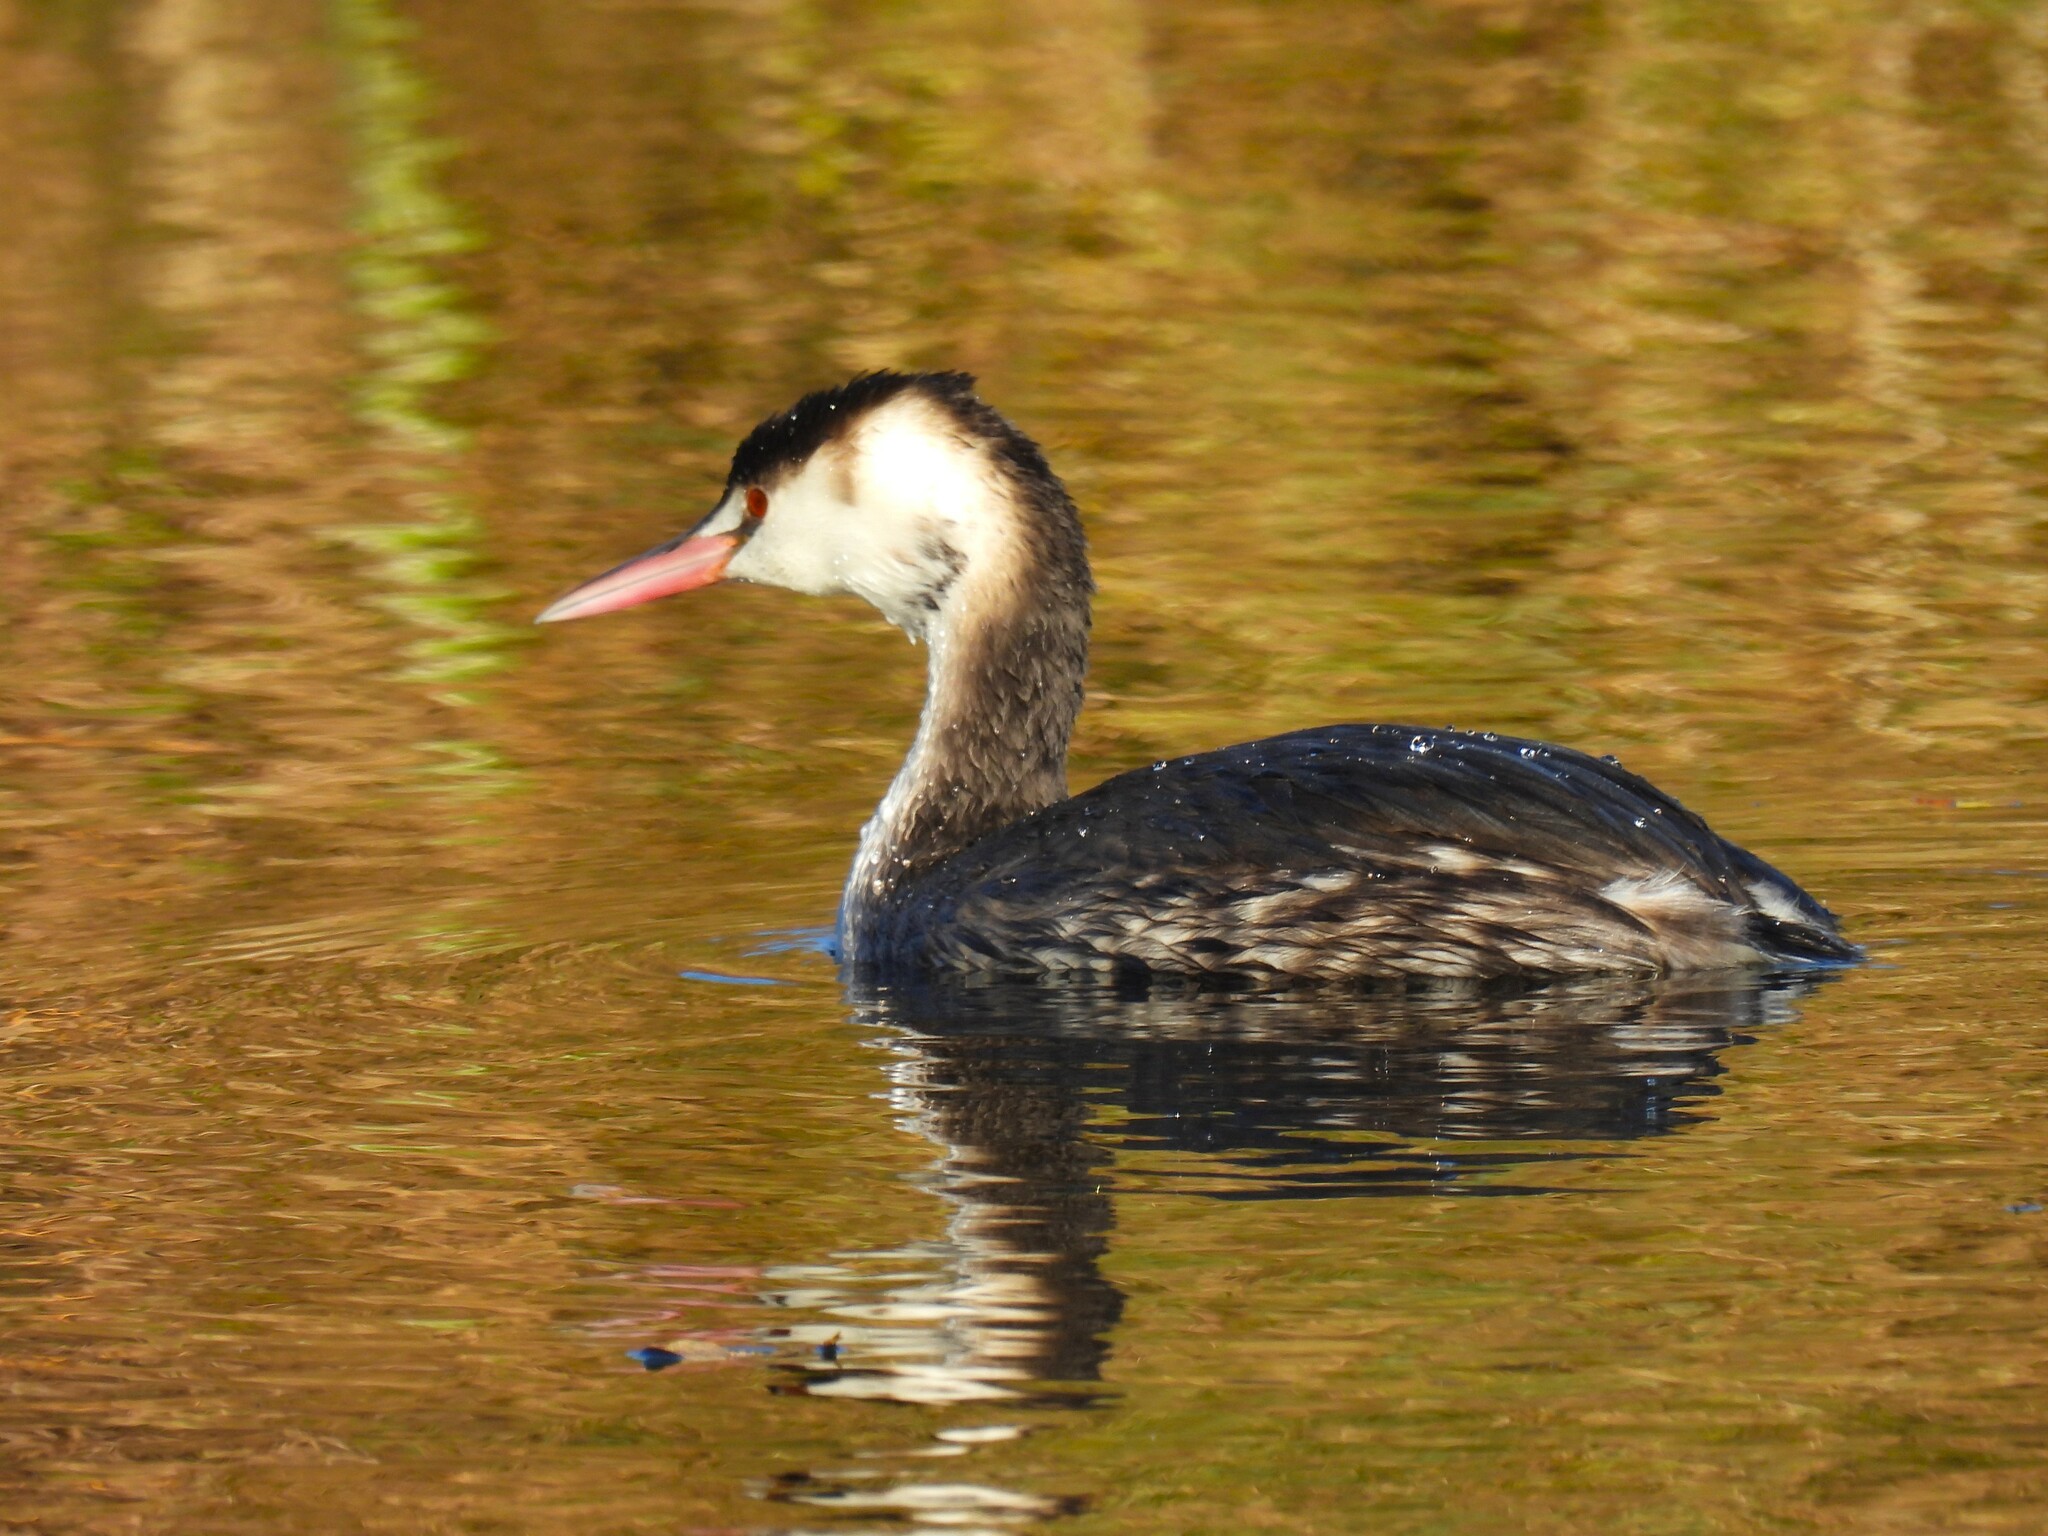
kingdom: Animalia
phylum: Chordata
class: Aves
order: Podicipediformes
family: Podicipedidae
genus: Podiceps
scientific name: Podiceps cristatus
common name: Great crested grebe
